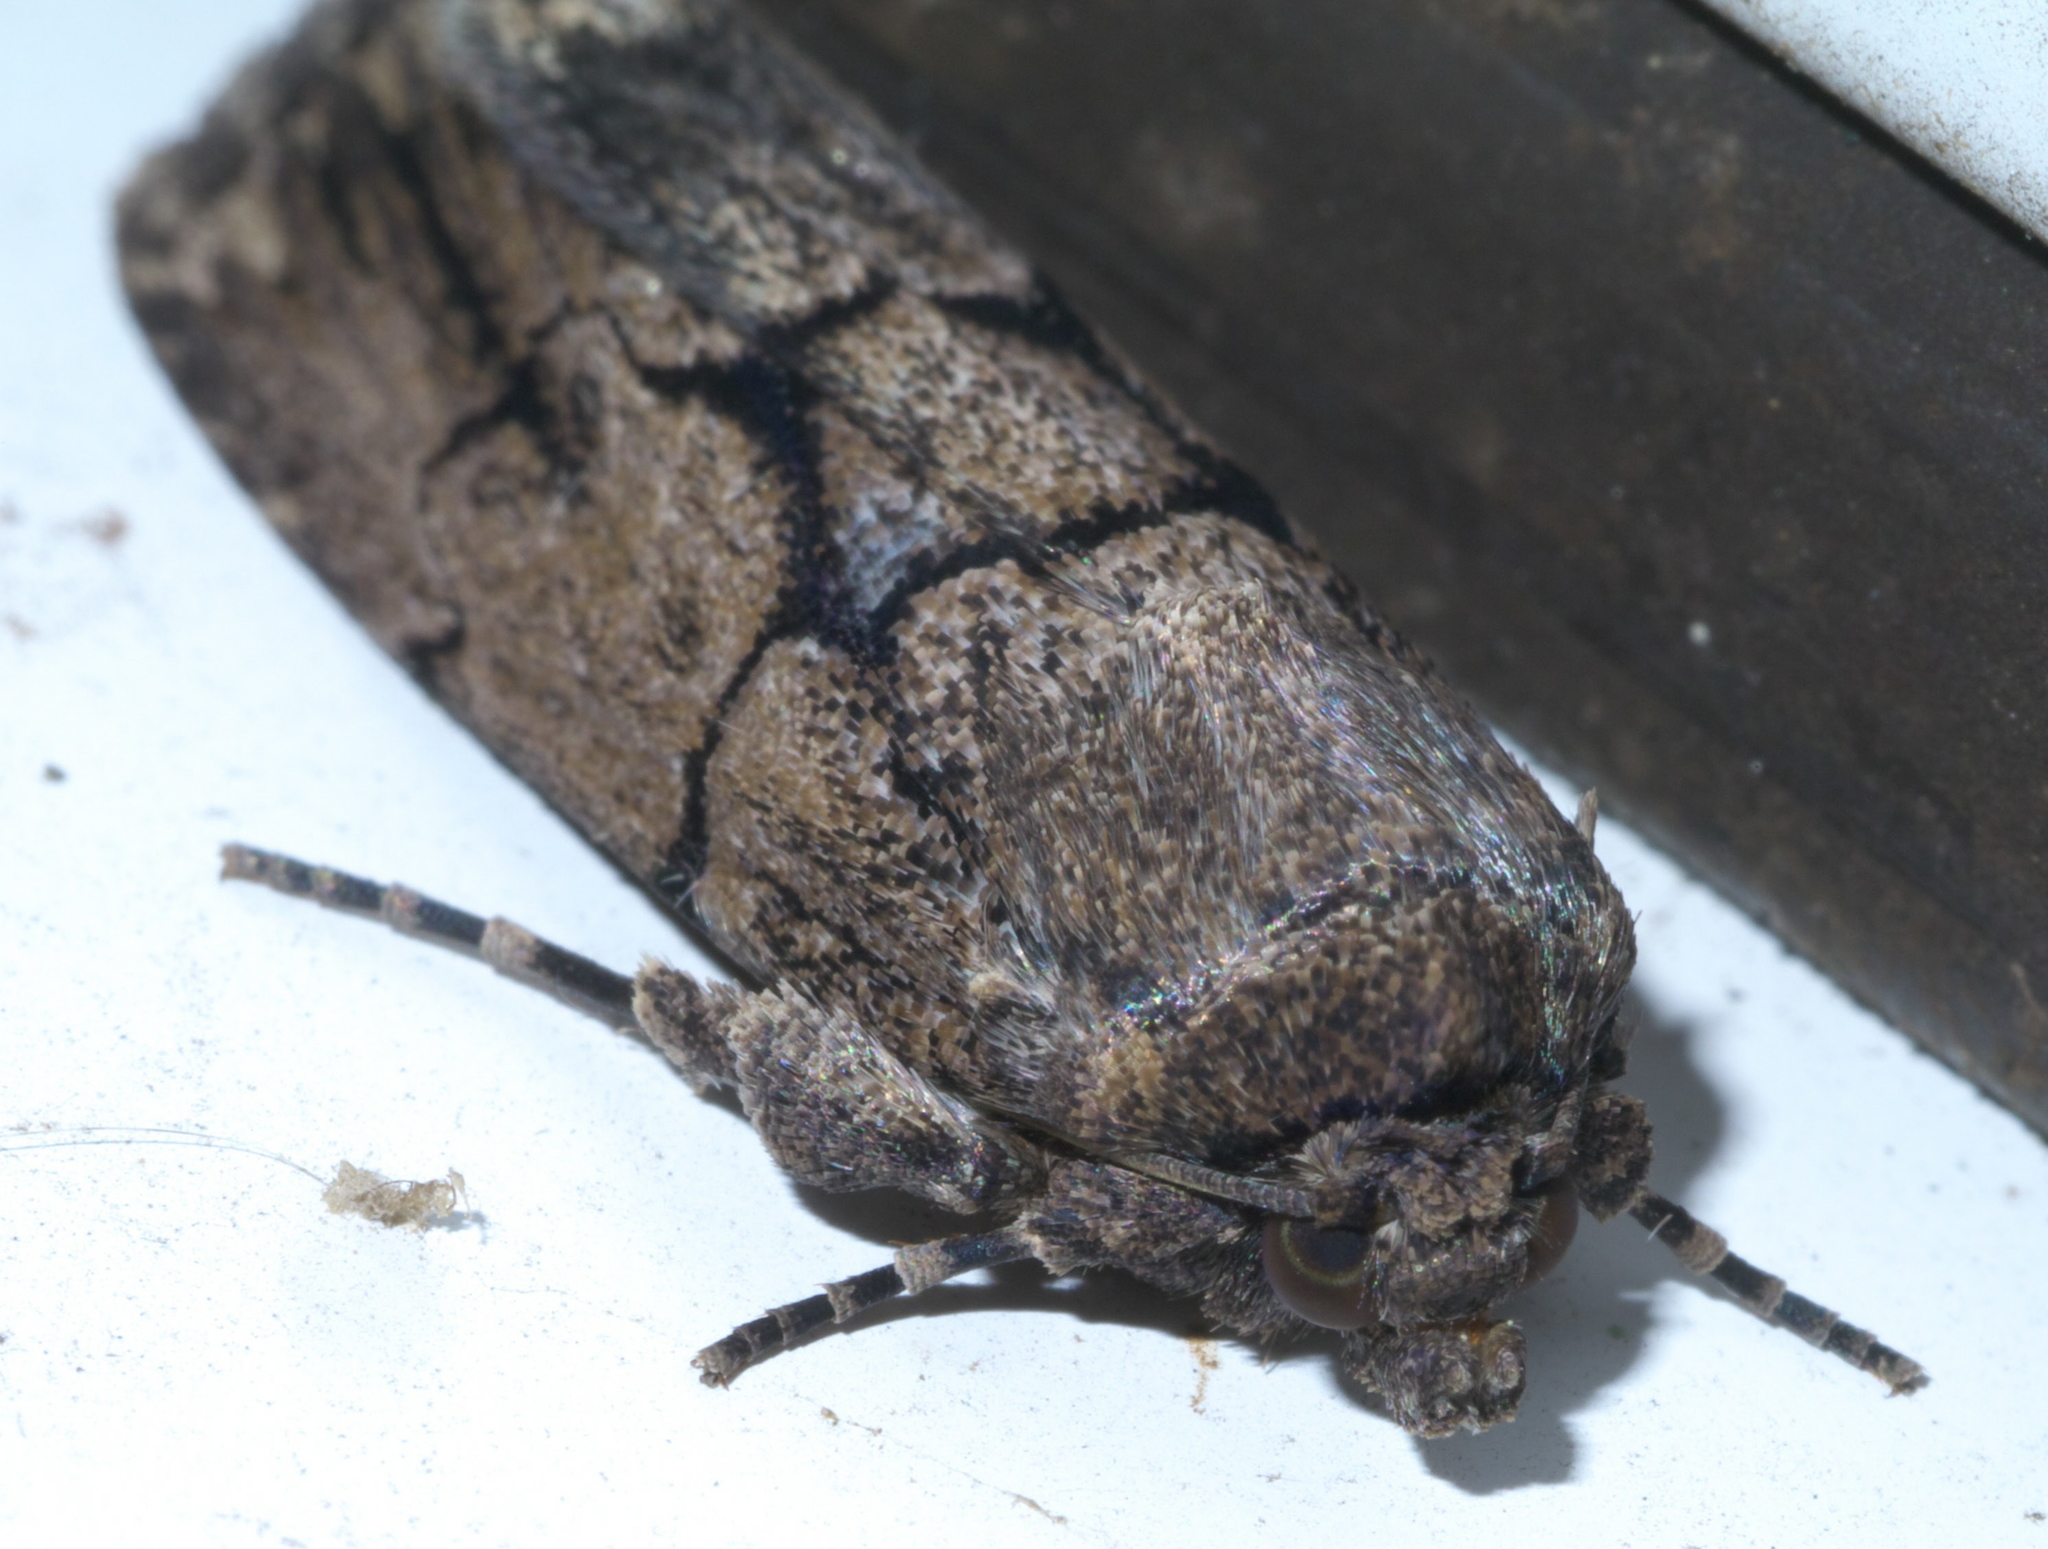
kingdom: Animalia
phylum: Arthropoda
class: Insecta
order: Lepidoptera
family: Noctuidae
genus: Sympistis
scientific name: Sympistis dinalda
